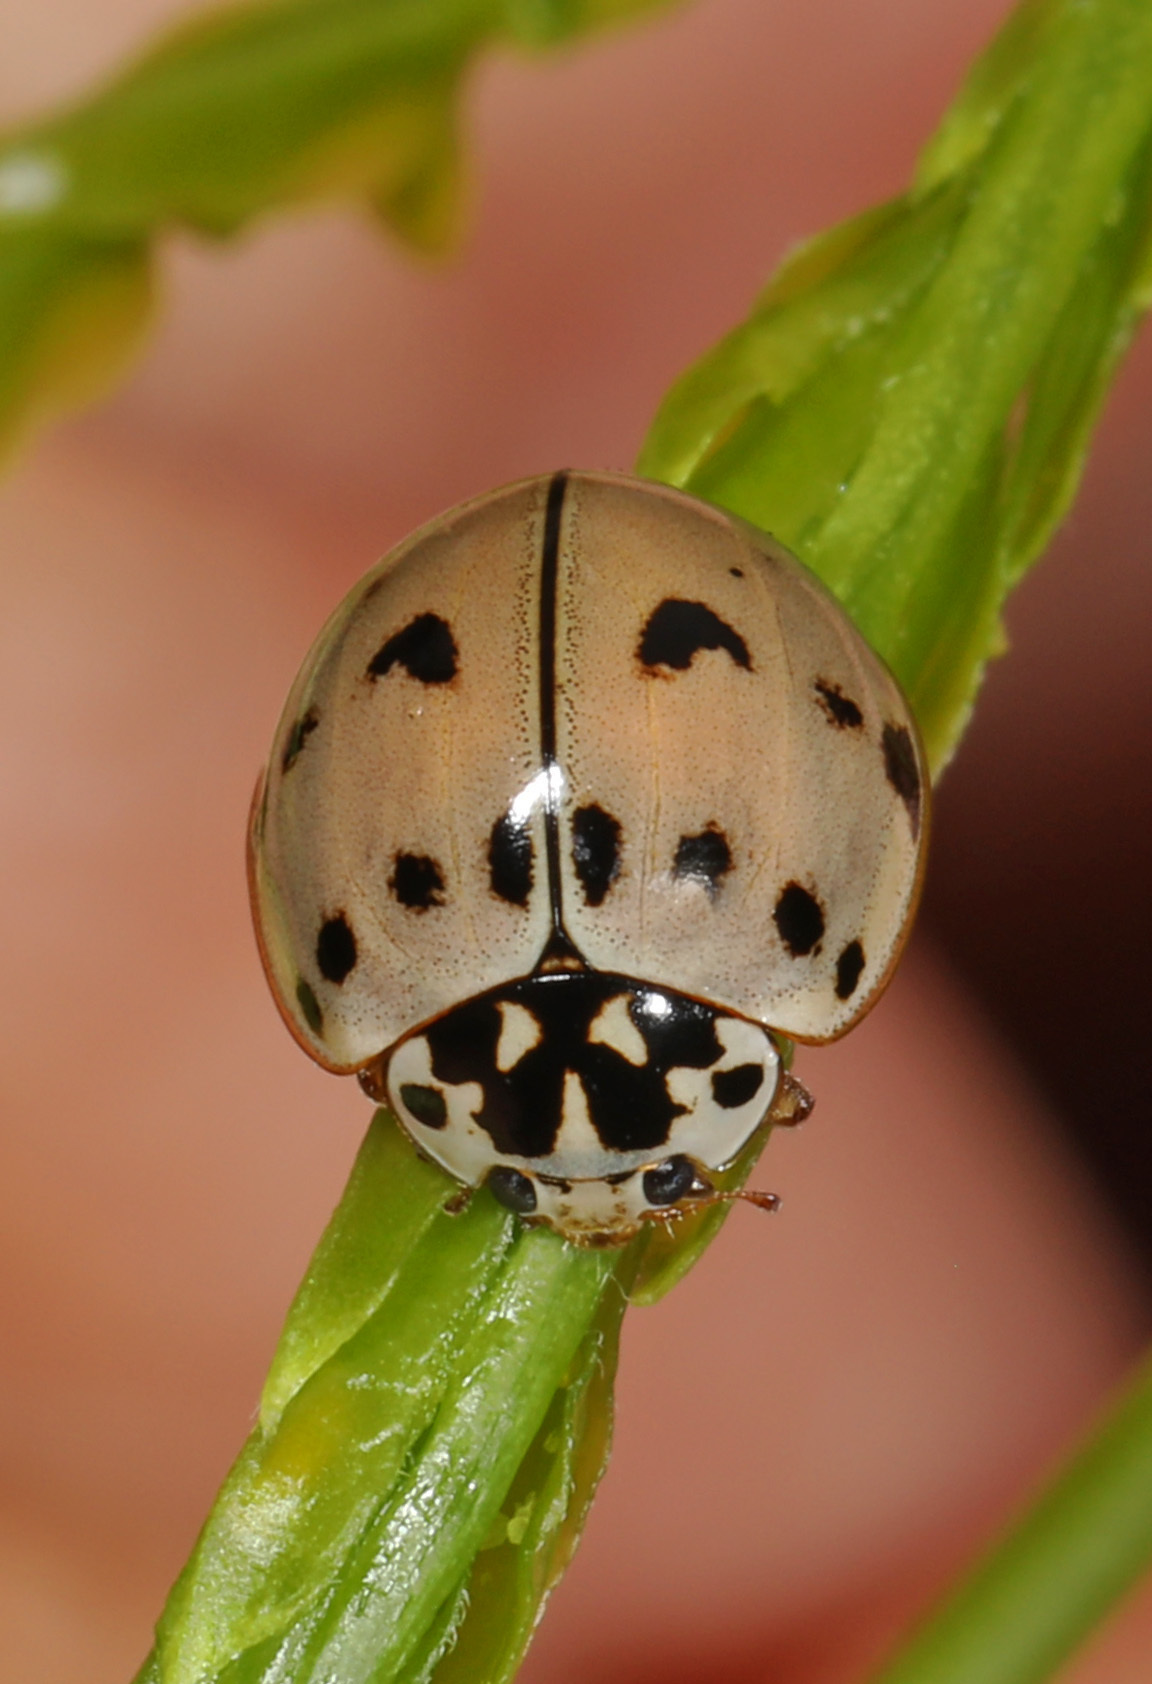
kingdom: Animalia
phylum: Arthropoda
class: Insecta
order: Coleoptera
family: Coccinellidae
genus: Olla
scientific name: Olla v-nigrum
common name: Ashy gray lady beetle
